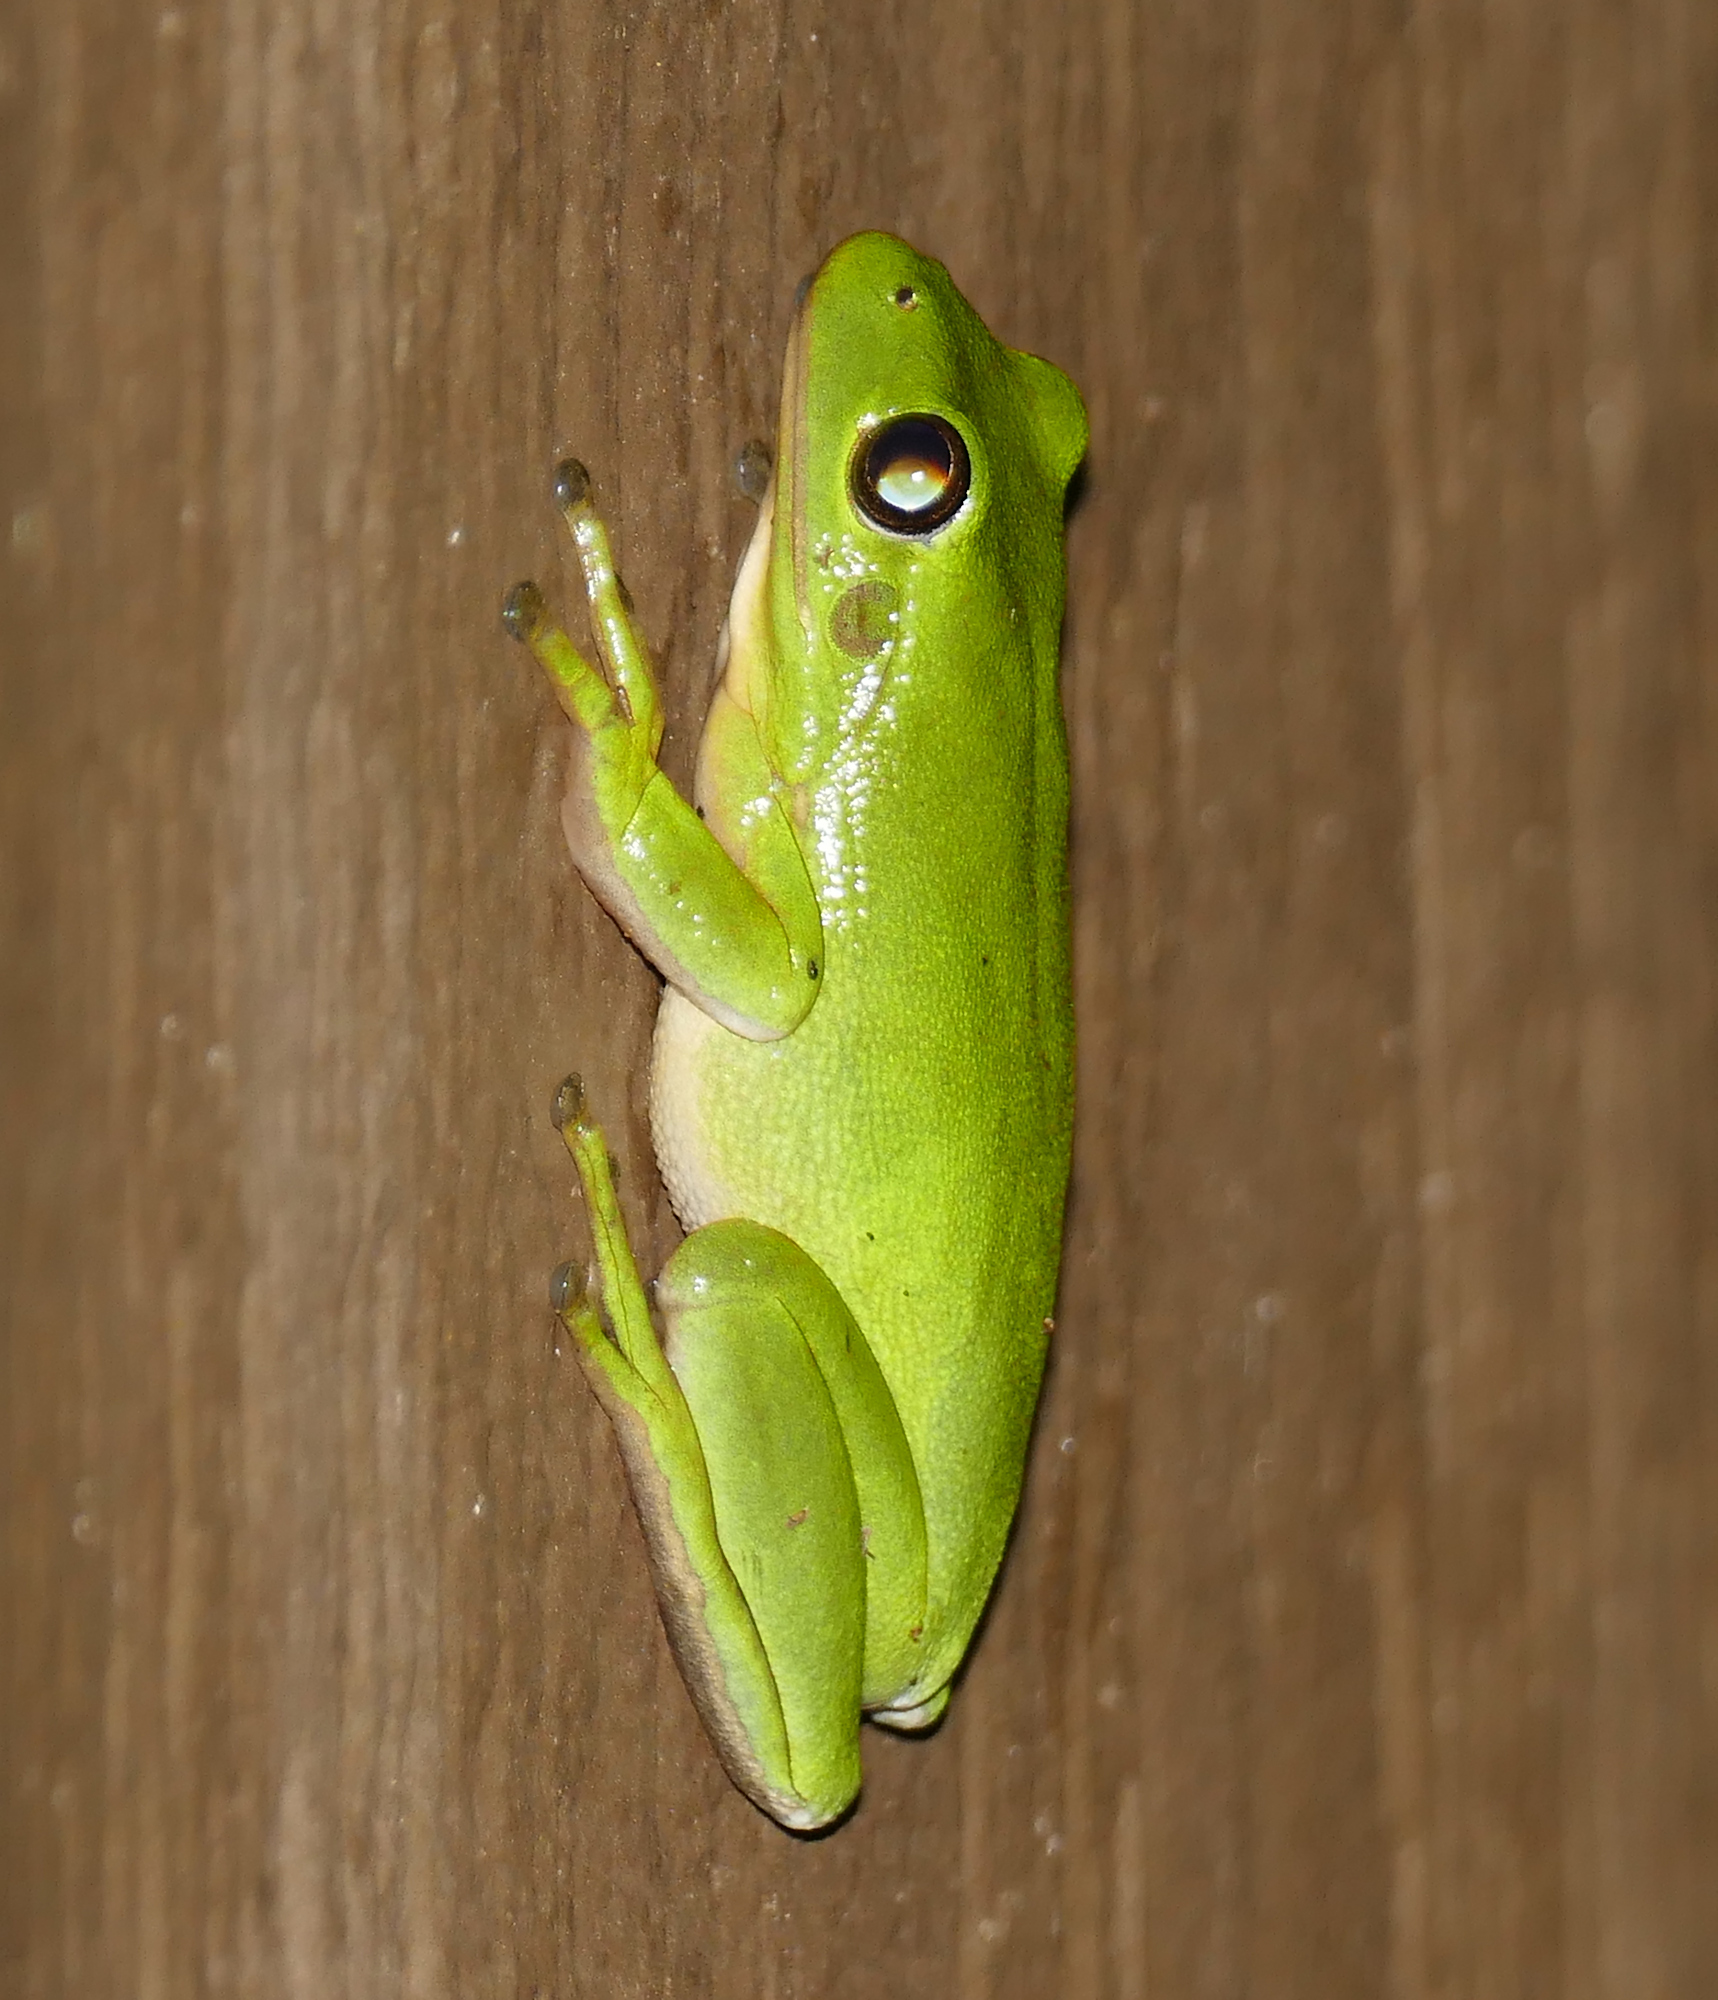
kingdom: Animalia
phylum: Chordata
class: Amphibia
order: Anura
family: Hylidae
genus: Dryophytes
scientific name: Dryophytes cinereus
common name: Green treefrog
